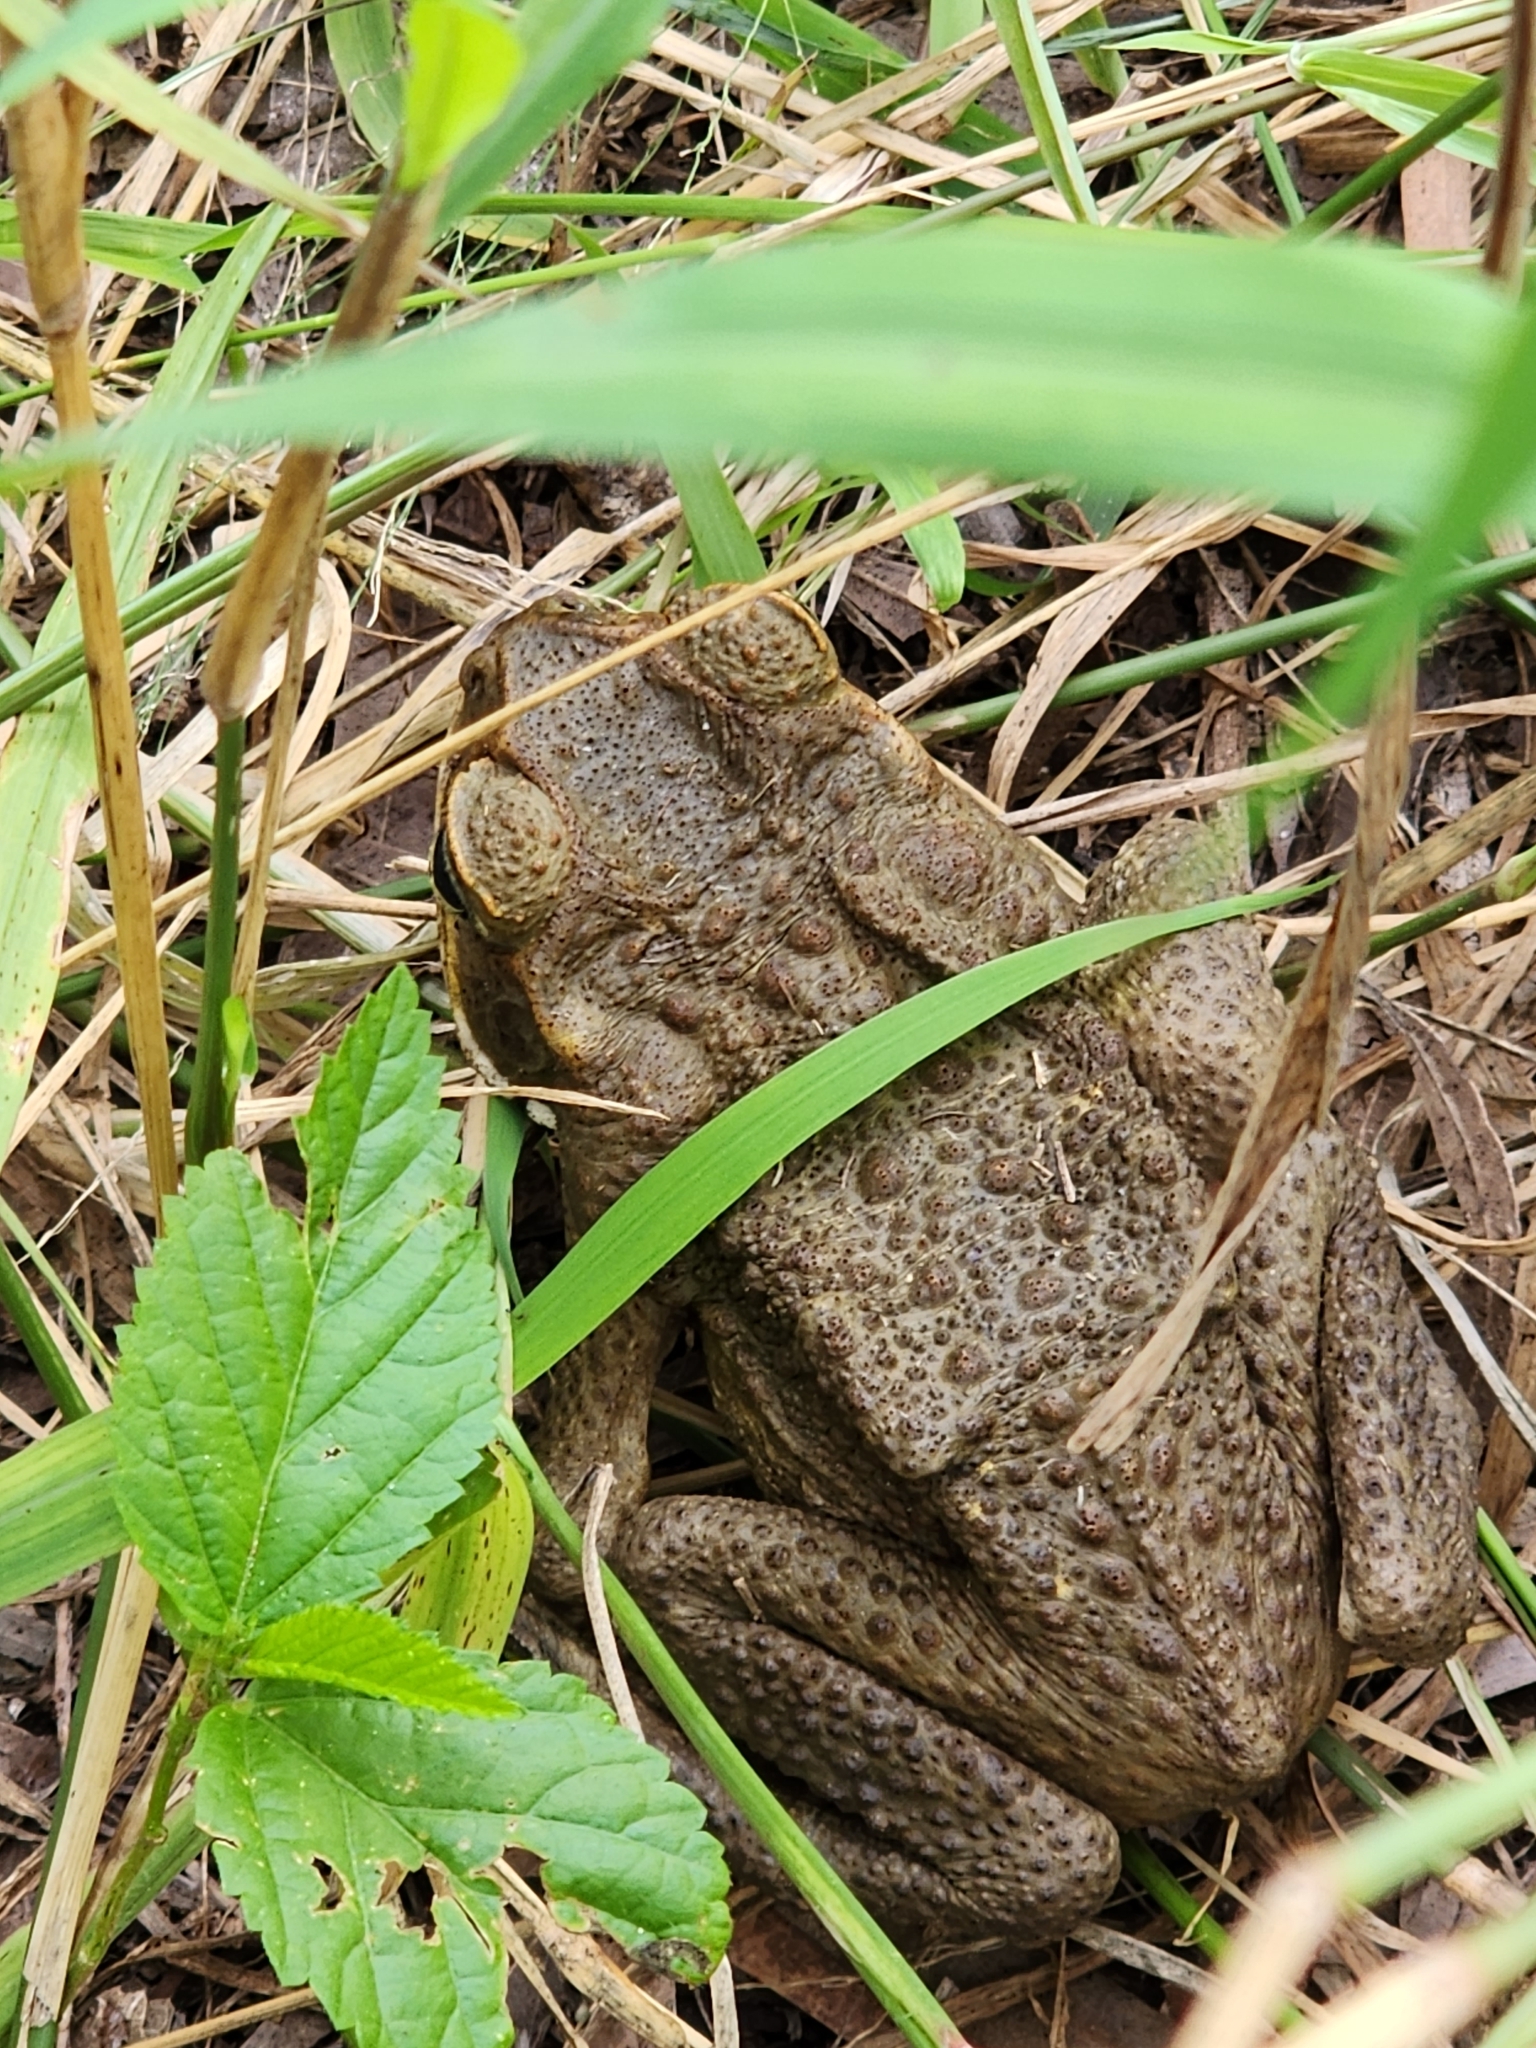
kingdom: Animalia
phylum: Chordata
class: Amphibia
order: Anura
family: Bufonidae
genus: Rhinella
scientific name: Rhinella marina
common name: Cane toad
